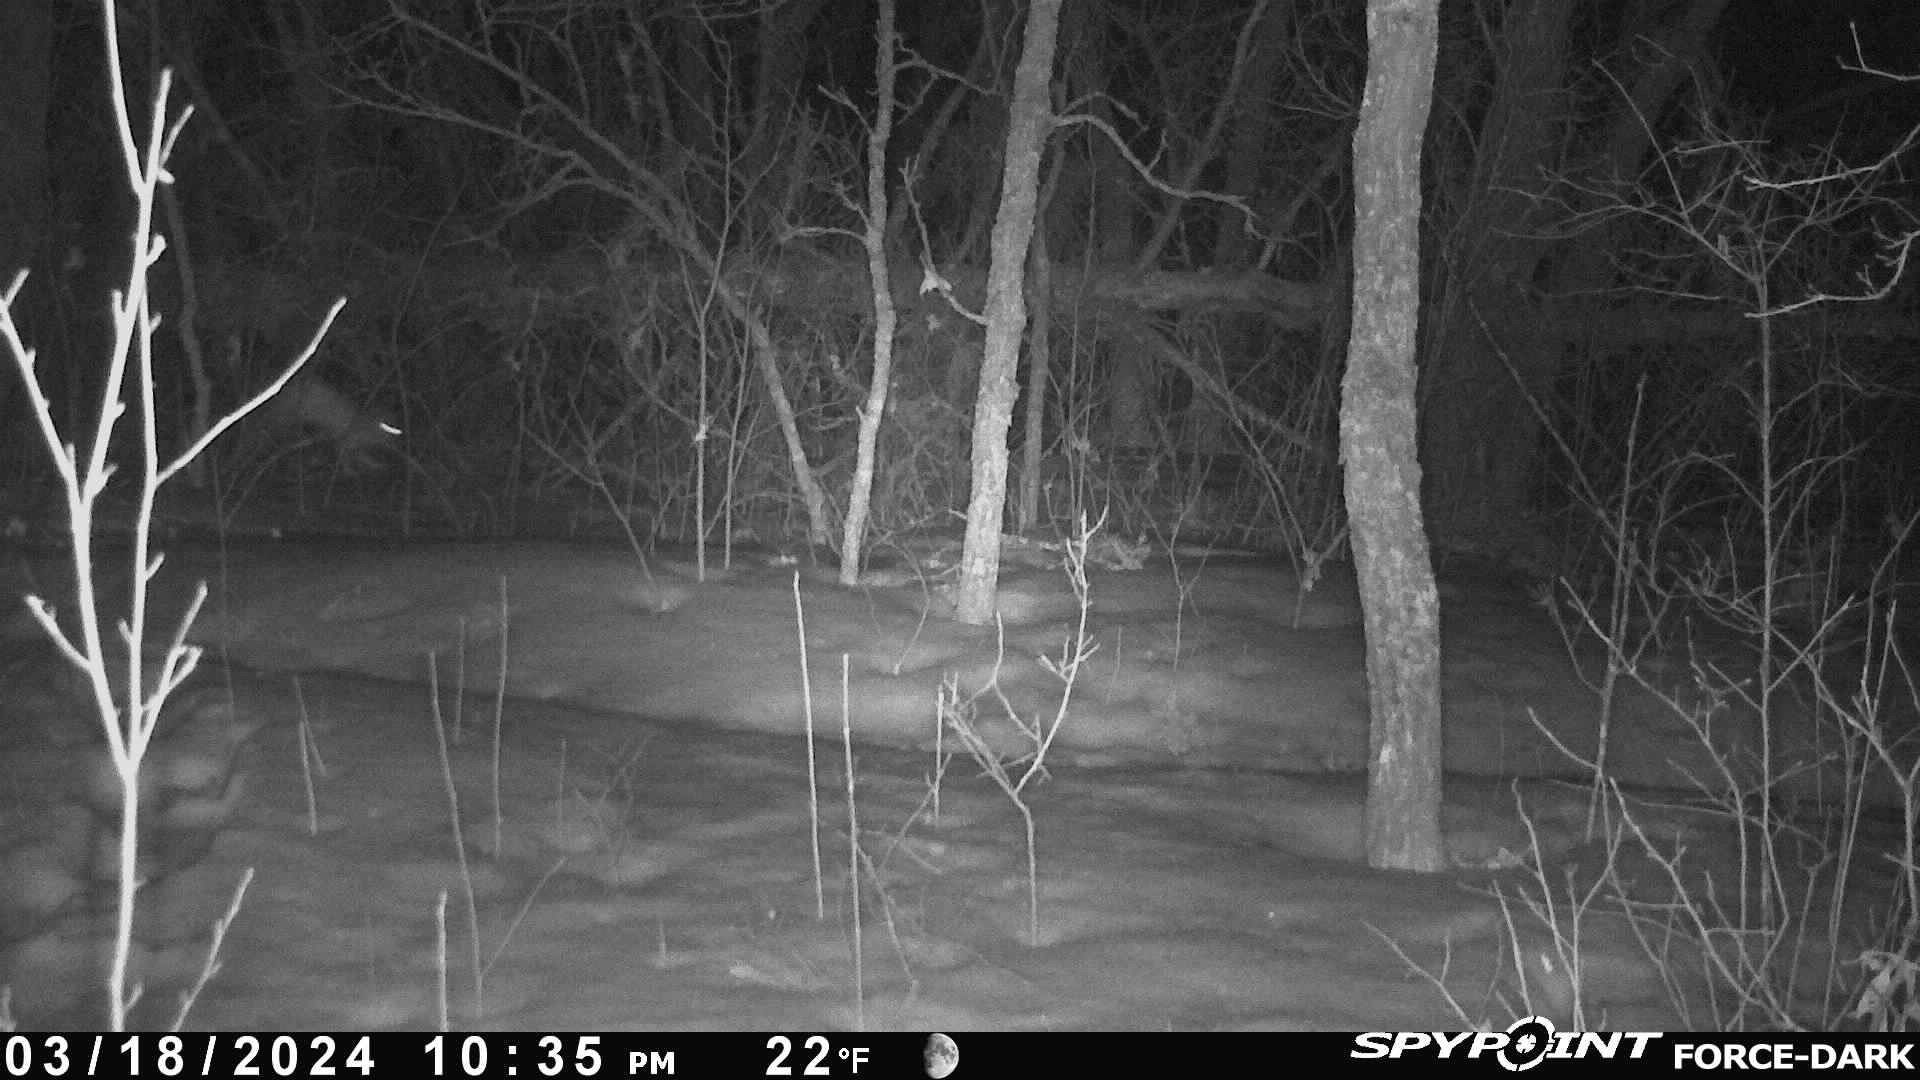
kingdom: Animalia
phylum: Chordata
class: Mammalia
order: Lagomorpha
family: Leporidae
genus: Lepus
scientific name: Lepus americanus
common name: Snowshoe hare
